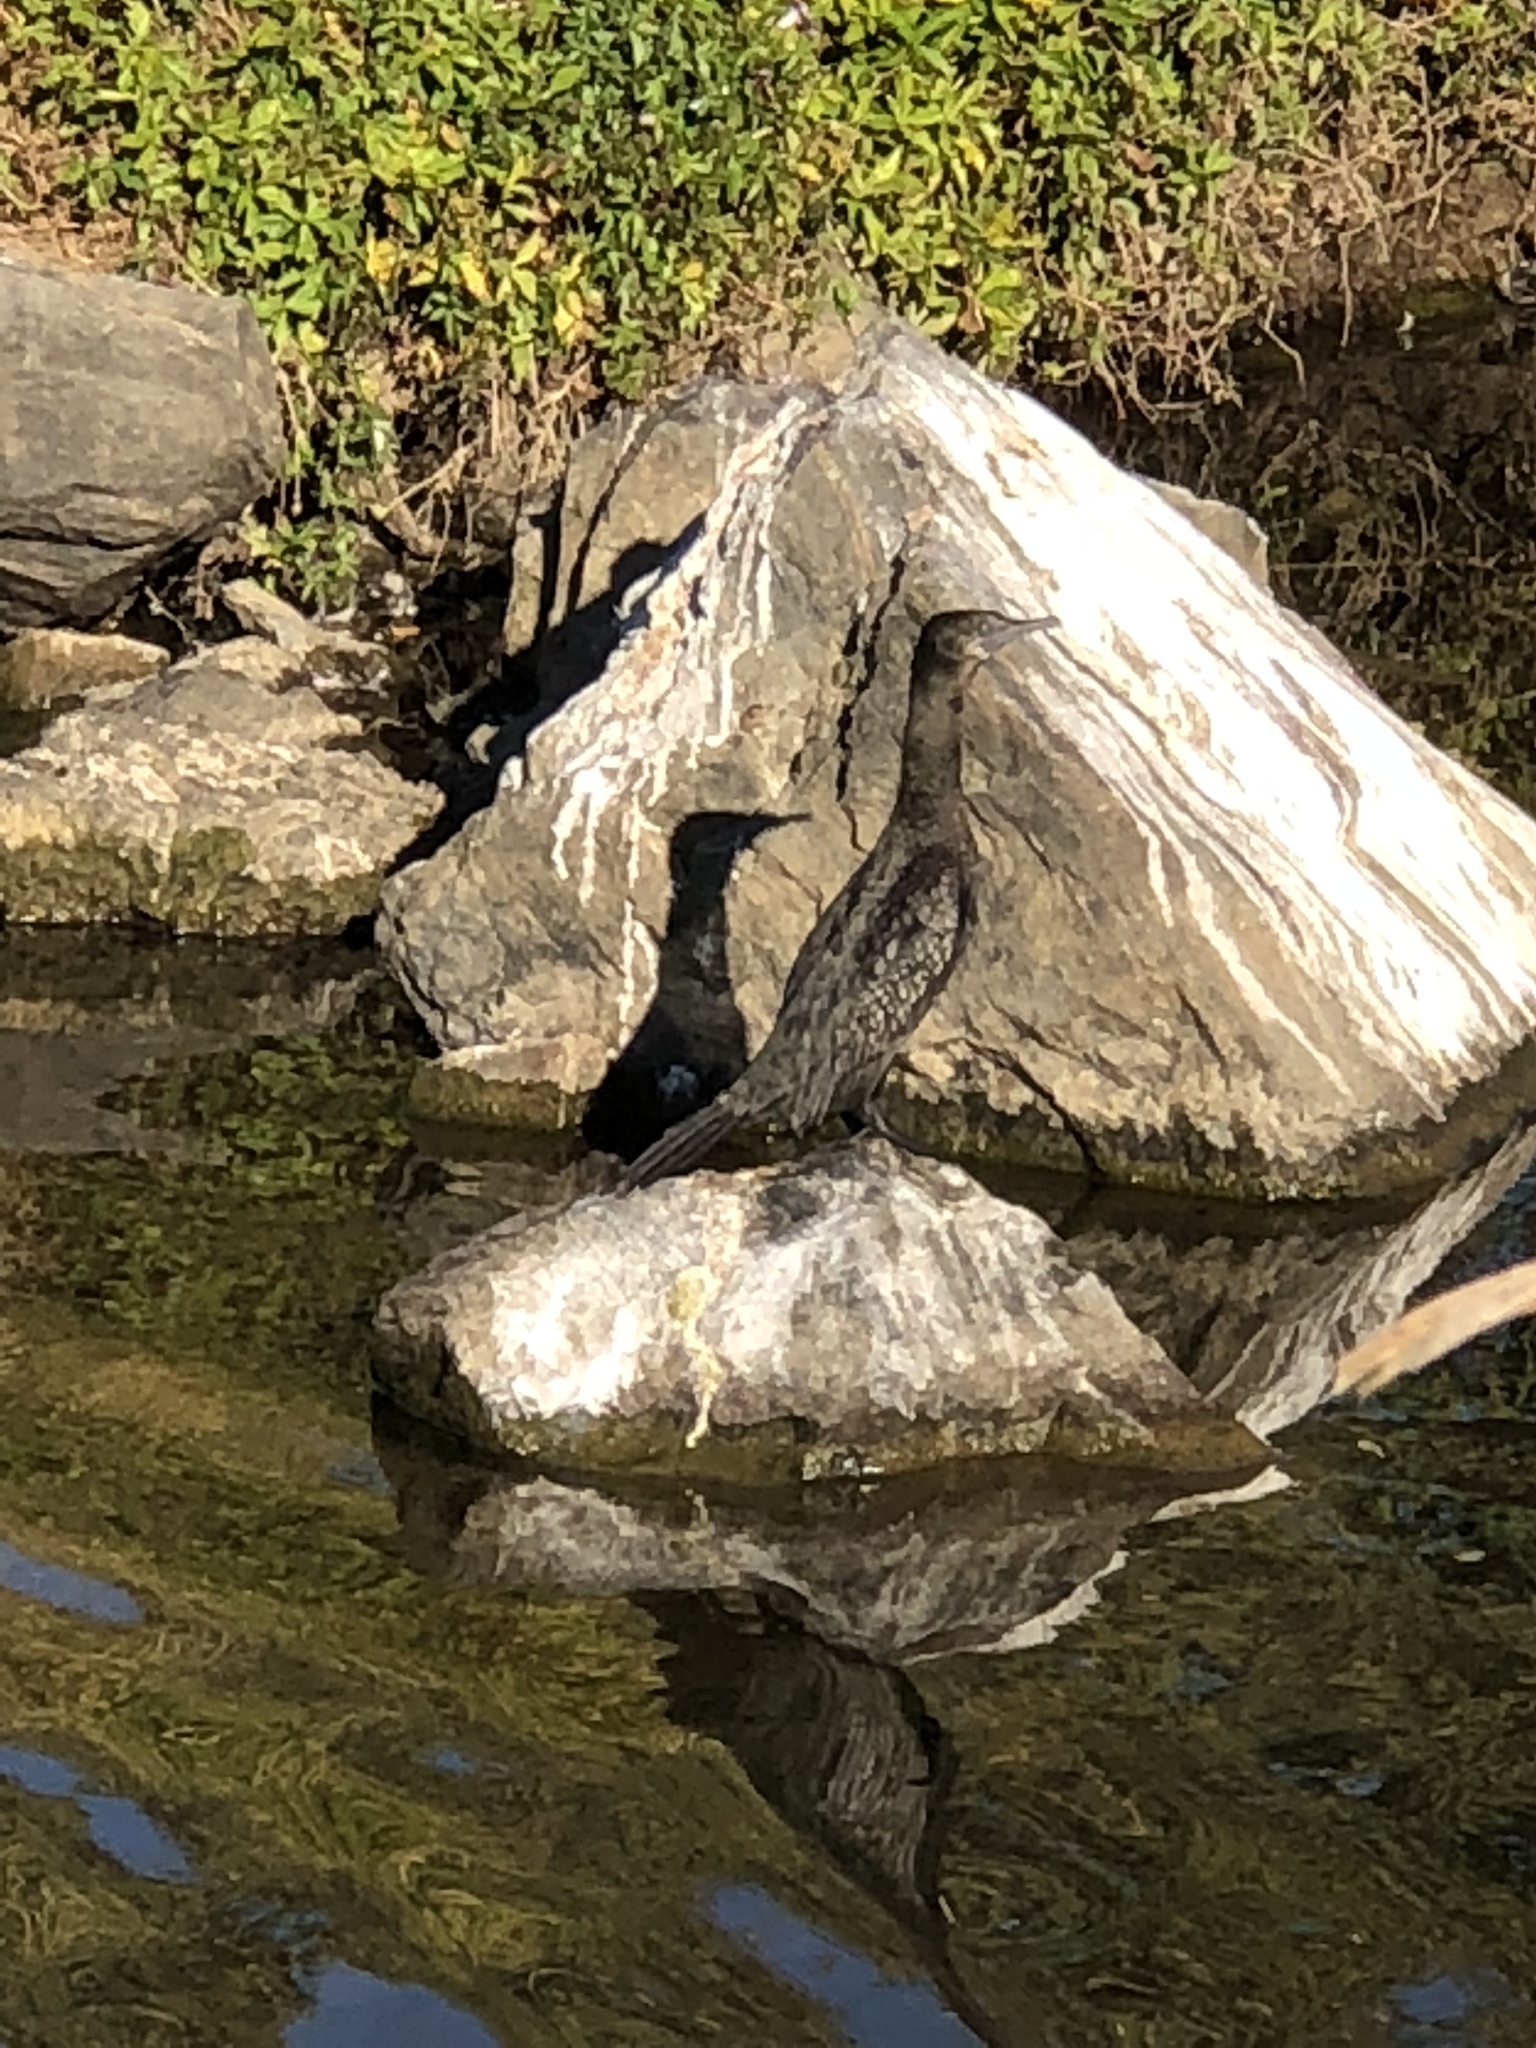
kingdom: Animalia
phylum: Chordata
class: Aves
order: Suliformes
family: Phalacrocoracidae
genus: Phalacrocorax
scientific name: Phalacrocorax sulcirostris
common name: Little black cormorant
